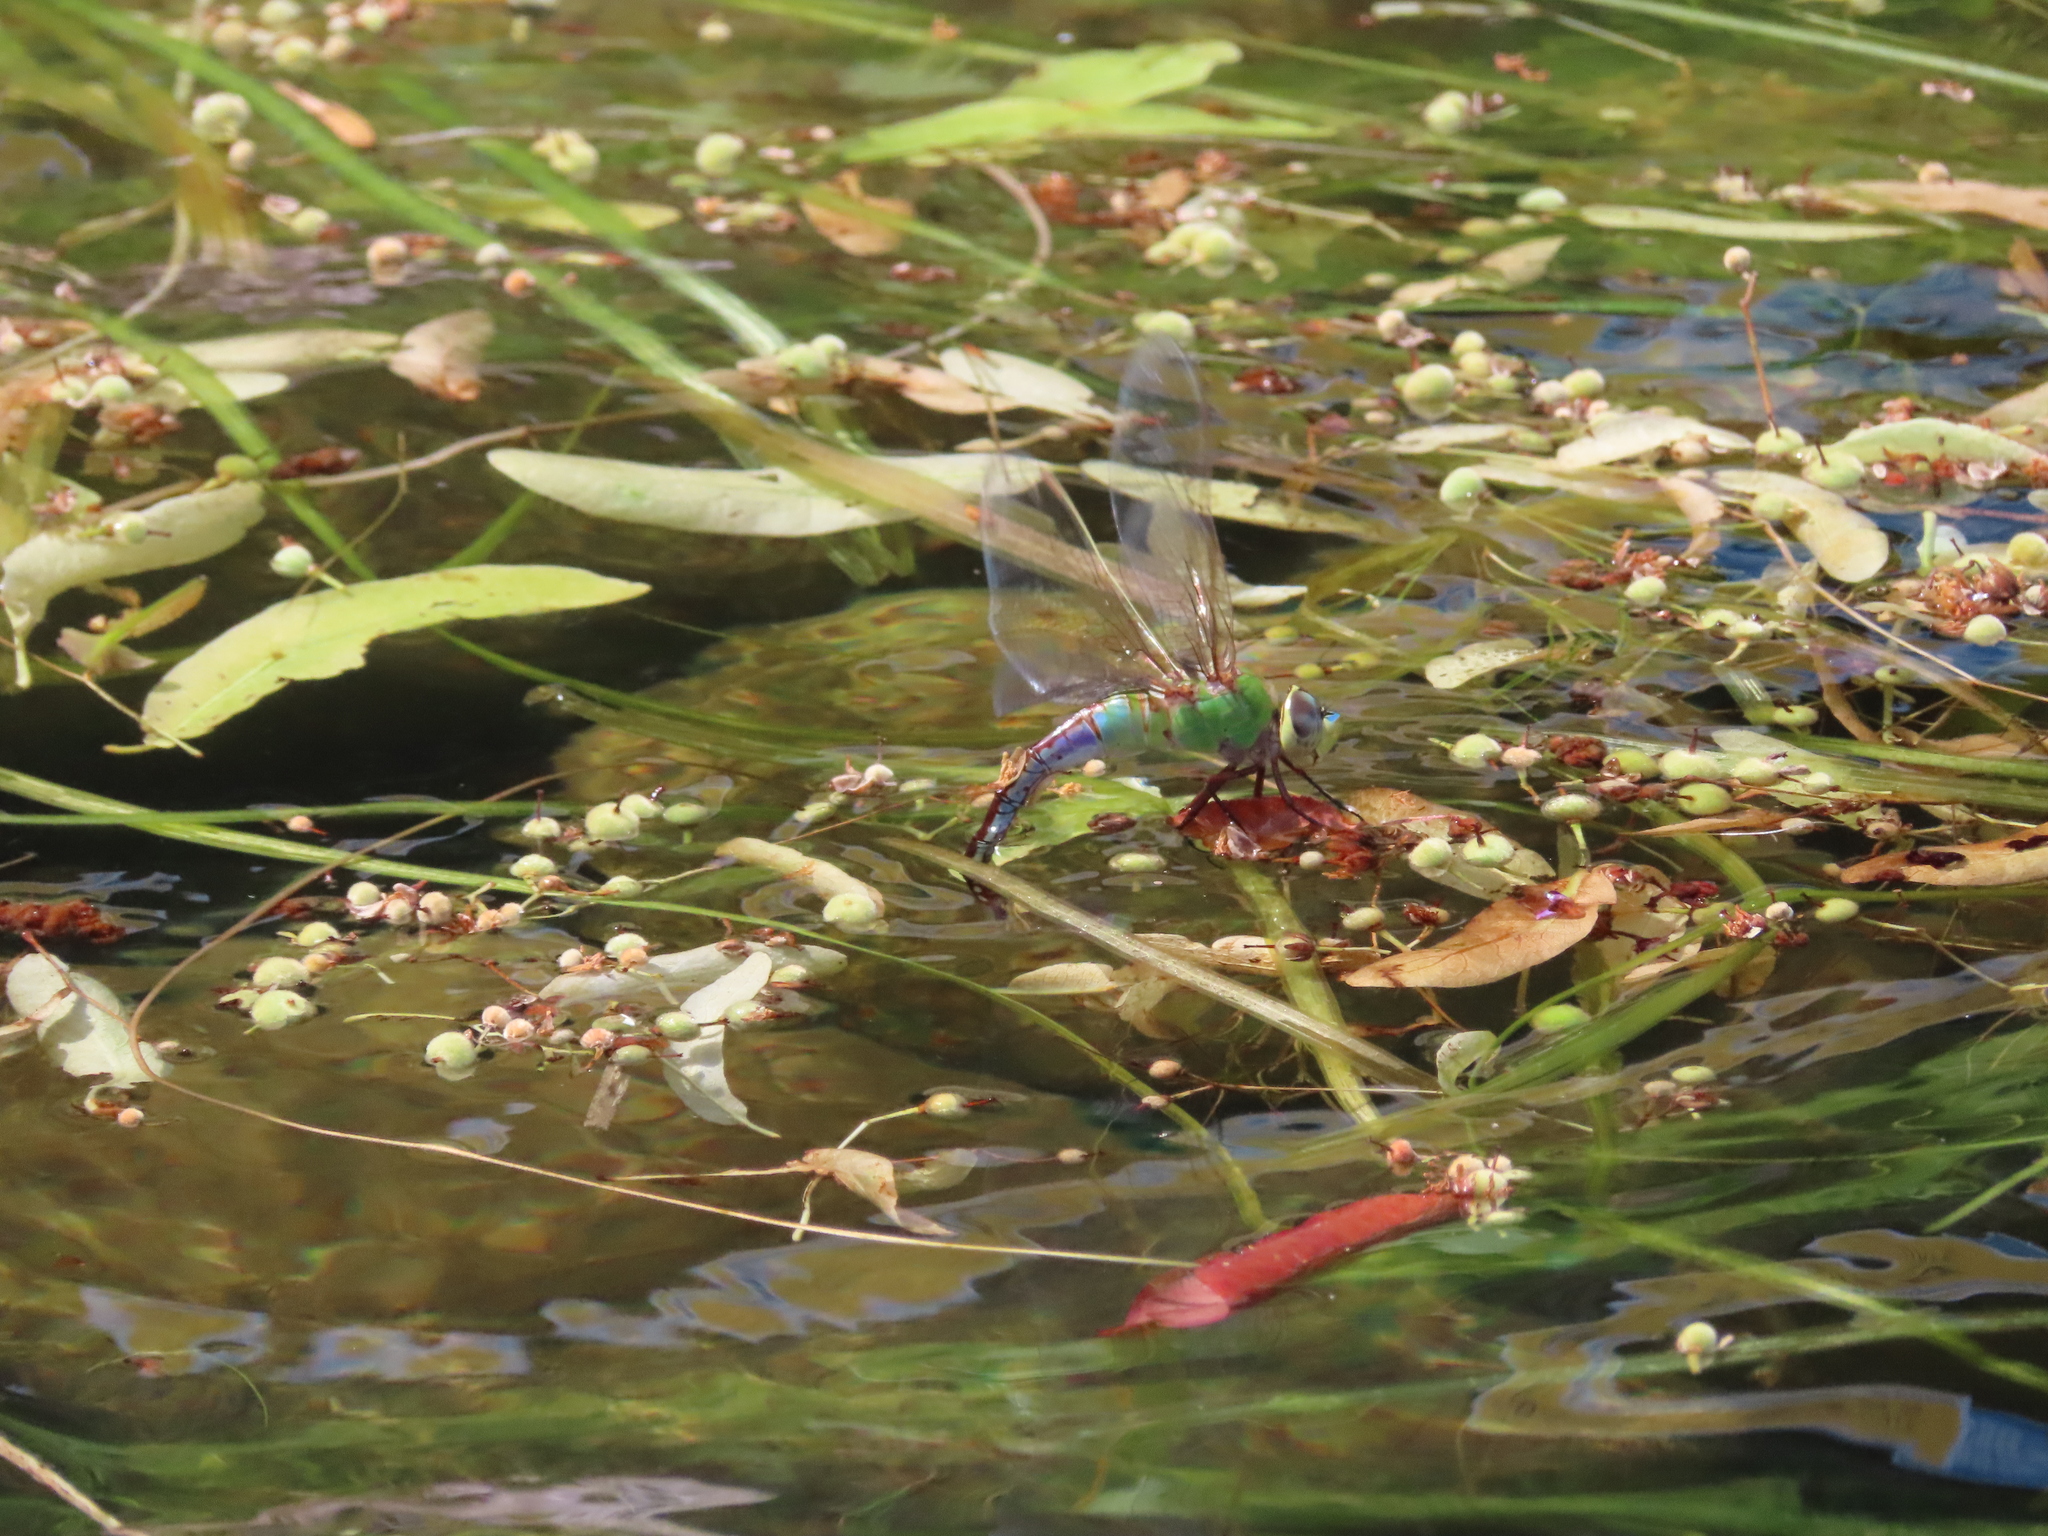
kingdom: Animalia
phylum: Arthropoda
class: Insecta
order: Odonata
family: Aeshnidae
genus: Anax
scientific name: Anax junius
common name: Common green darner
